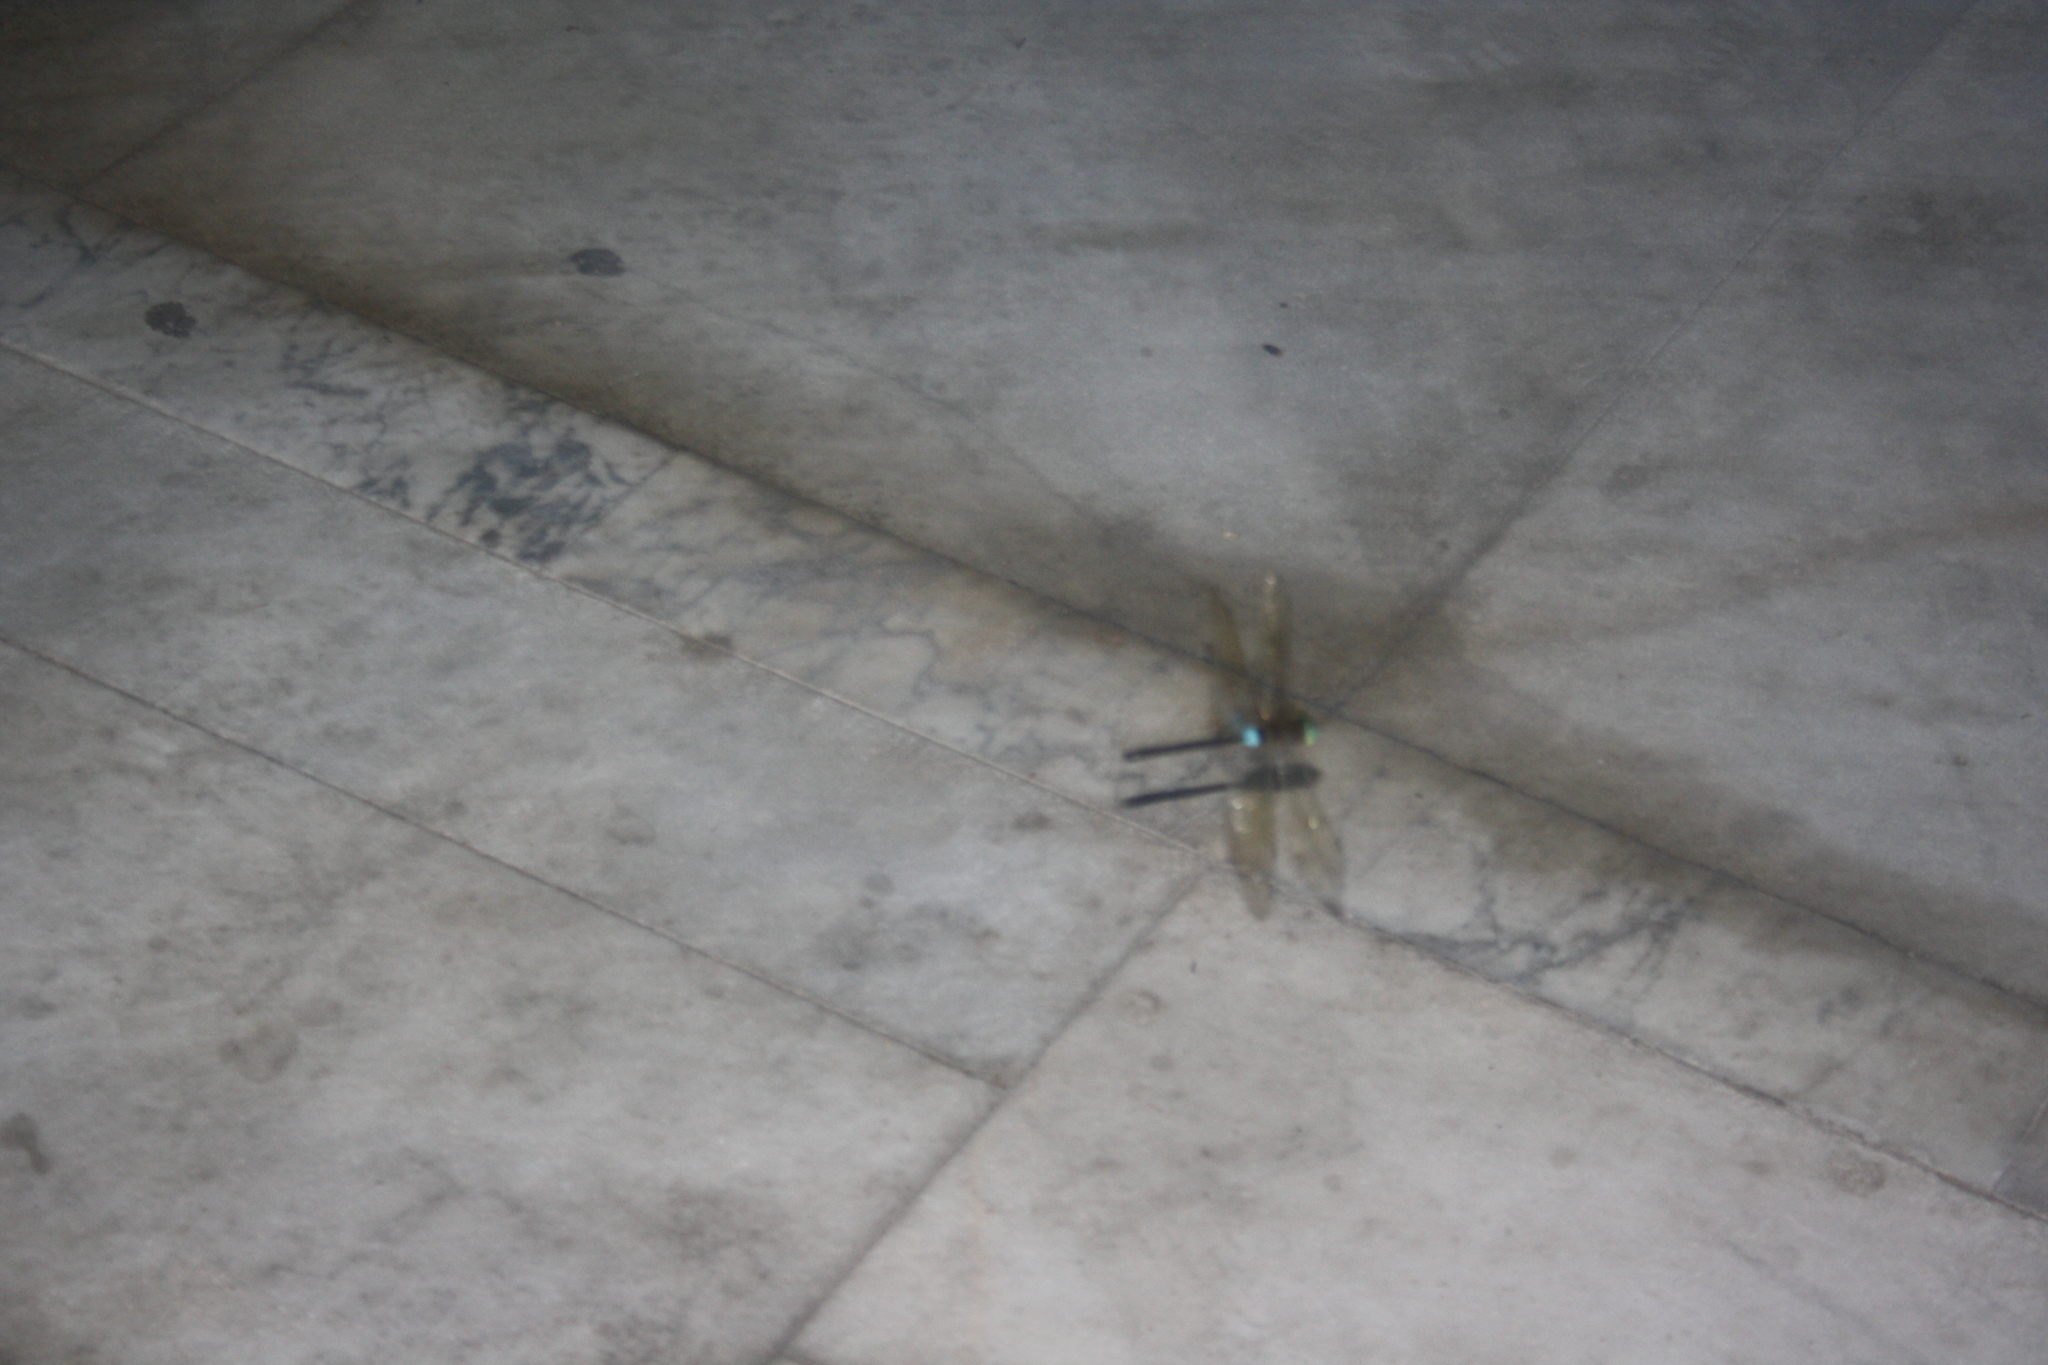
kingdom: Animalia
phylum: Arthropoda
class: Insecta
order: Odonata
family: Aeshnidae
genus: Anax
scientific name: Anax parthenope
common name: Lesser emperor
